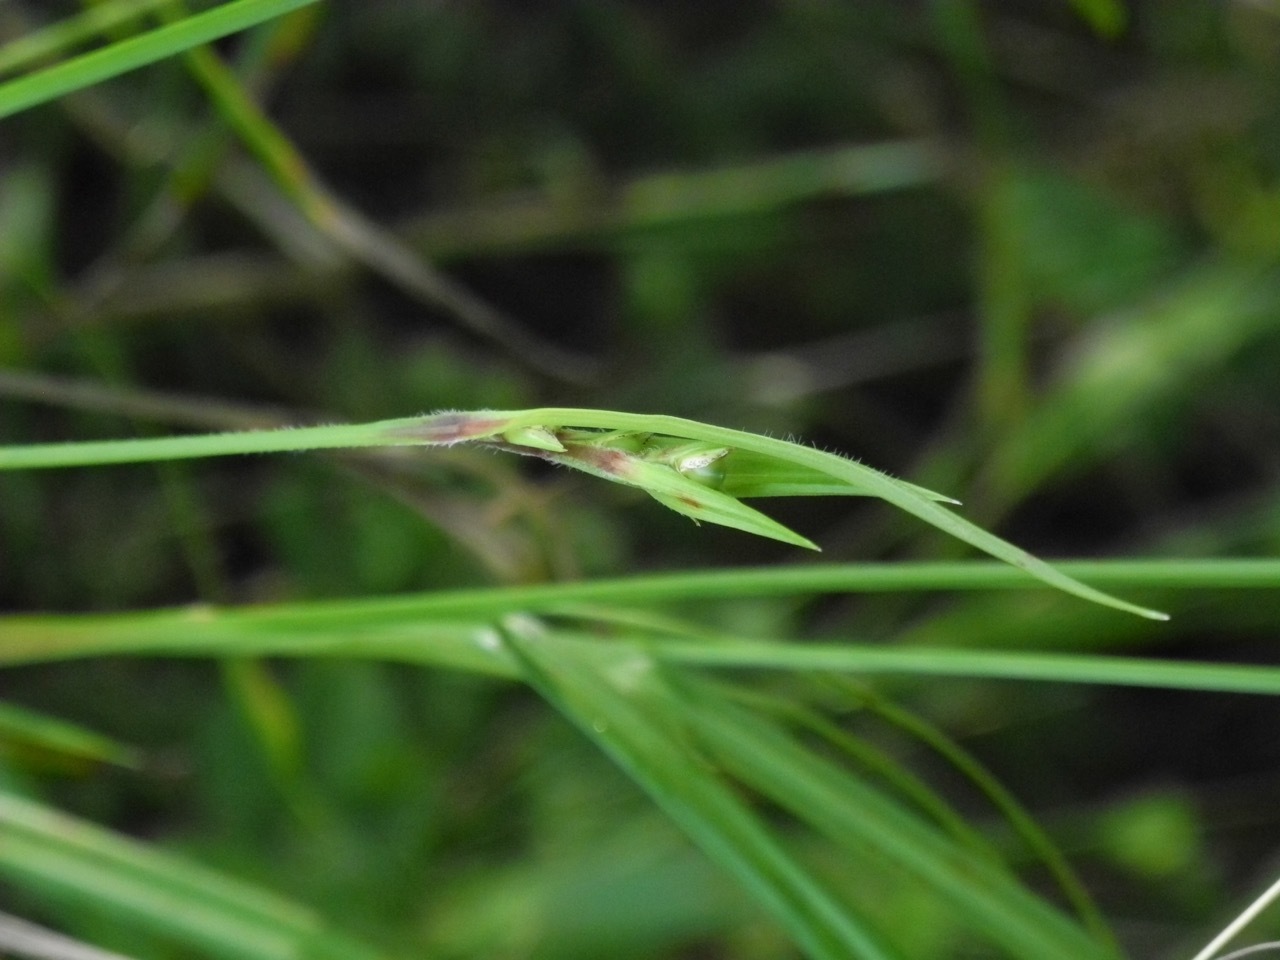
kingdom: Plantae
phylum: Tracheophyta
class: Liliopsida
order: Poales
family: Cyperaceae
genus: Scleria
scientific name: Scleria oligantha
